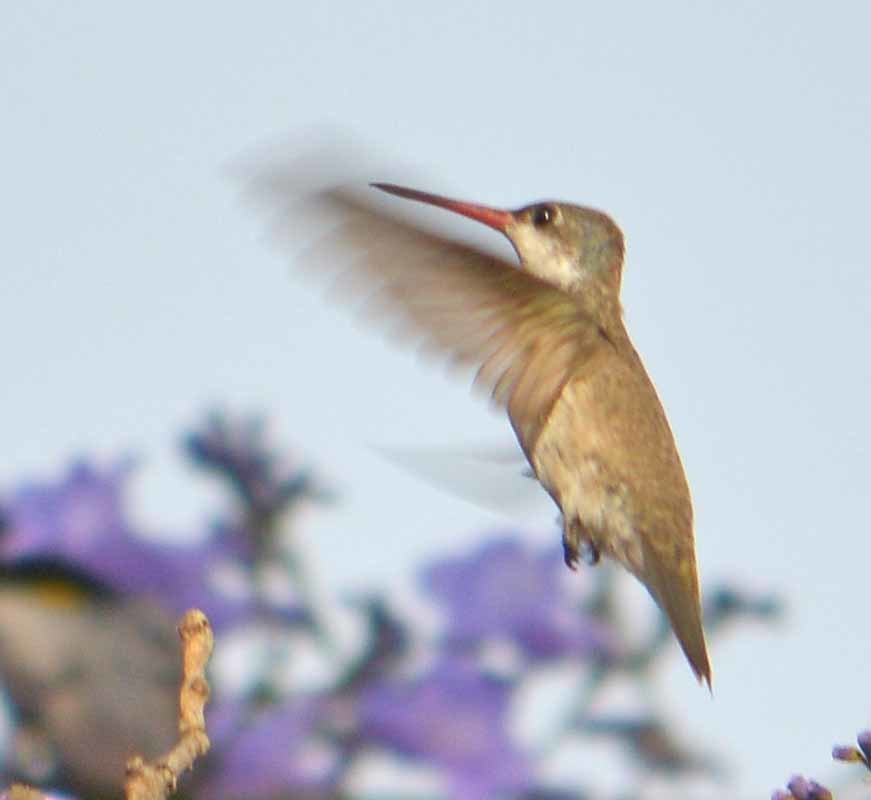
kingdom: Animalia
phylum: Chordata
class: Aves
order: Apodiformes
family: Trochilidae
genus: Leucolia
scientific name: Leucolia violiceps
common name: Violet-crowned hummingbird
